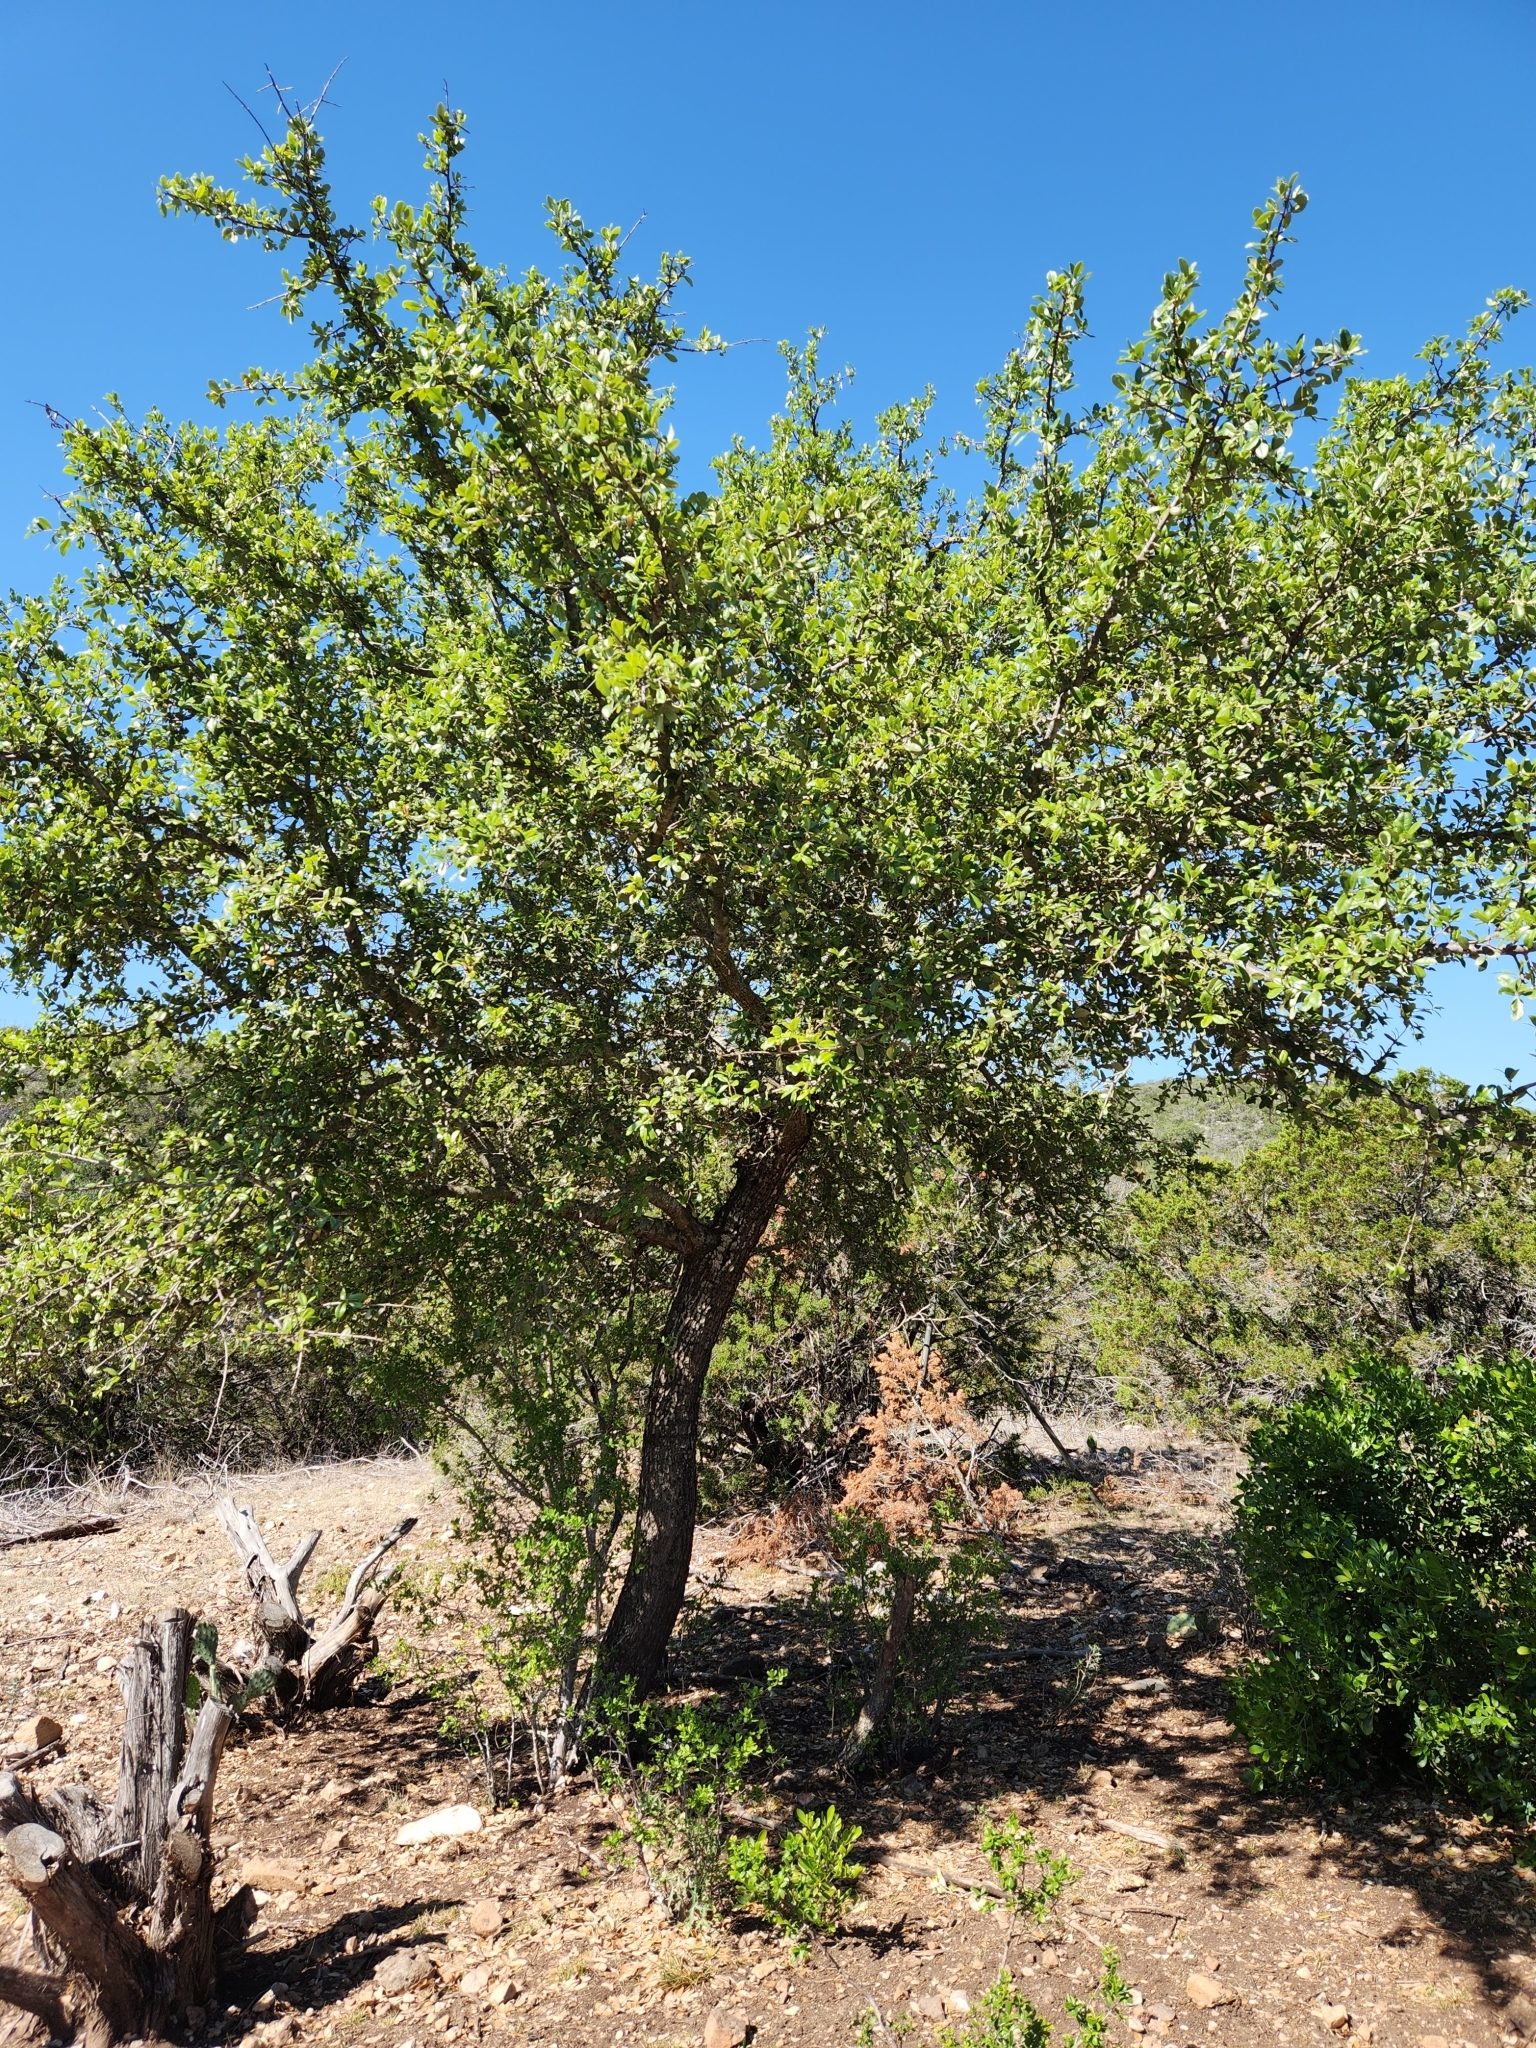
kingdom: Plantae
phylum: Tracheophyta
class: Magnoliopsida
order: Fagales
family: Fagaceae
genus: Quercus
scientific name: Quercus fusiformis
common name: Texas live oak
